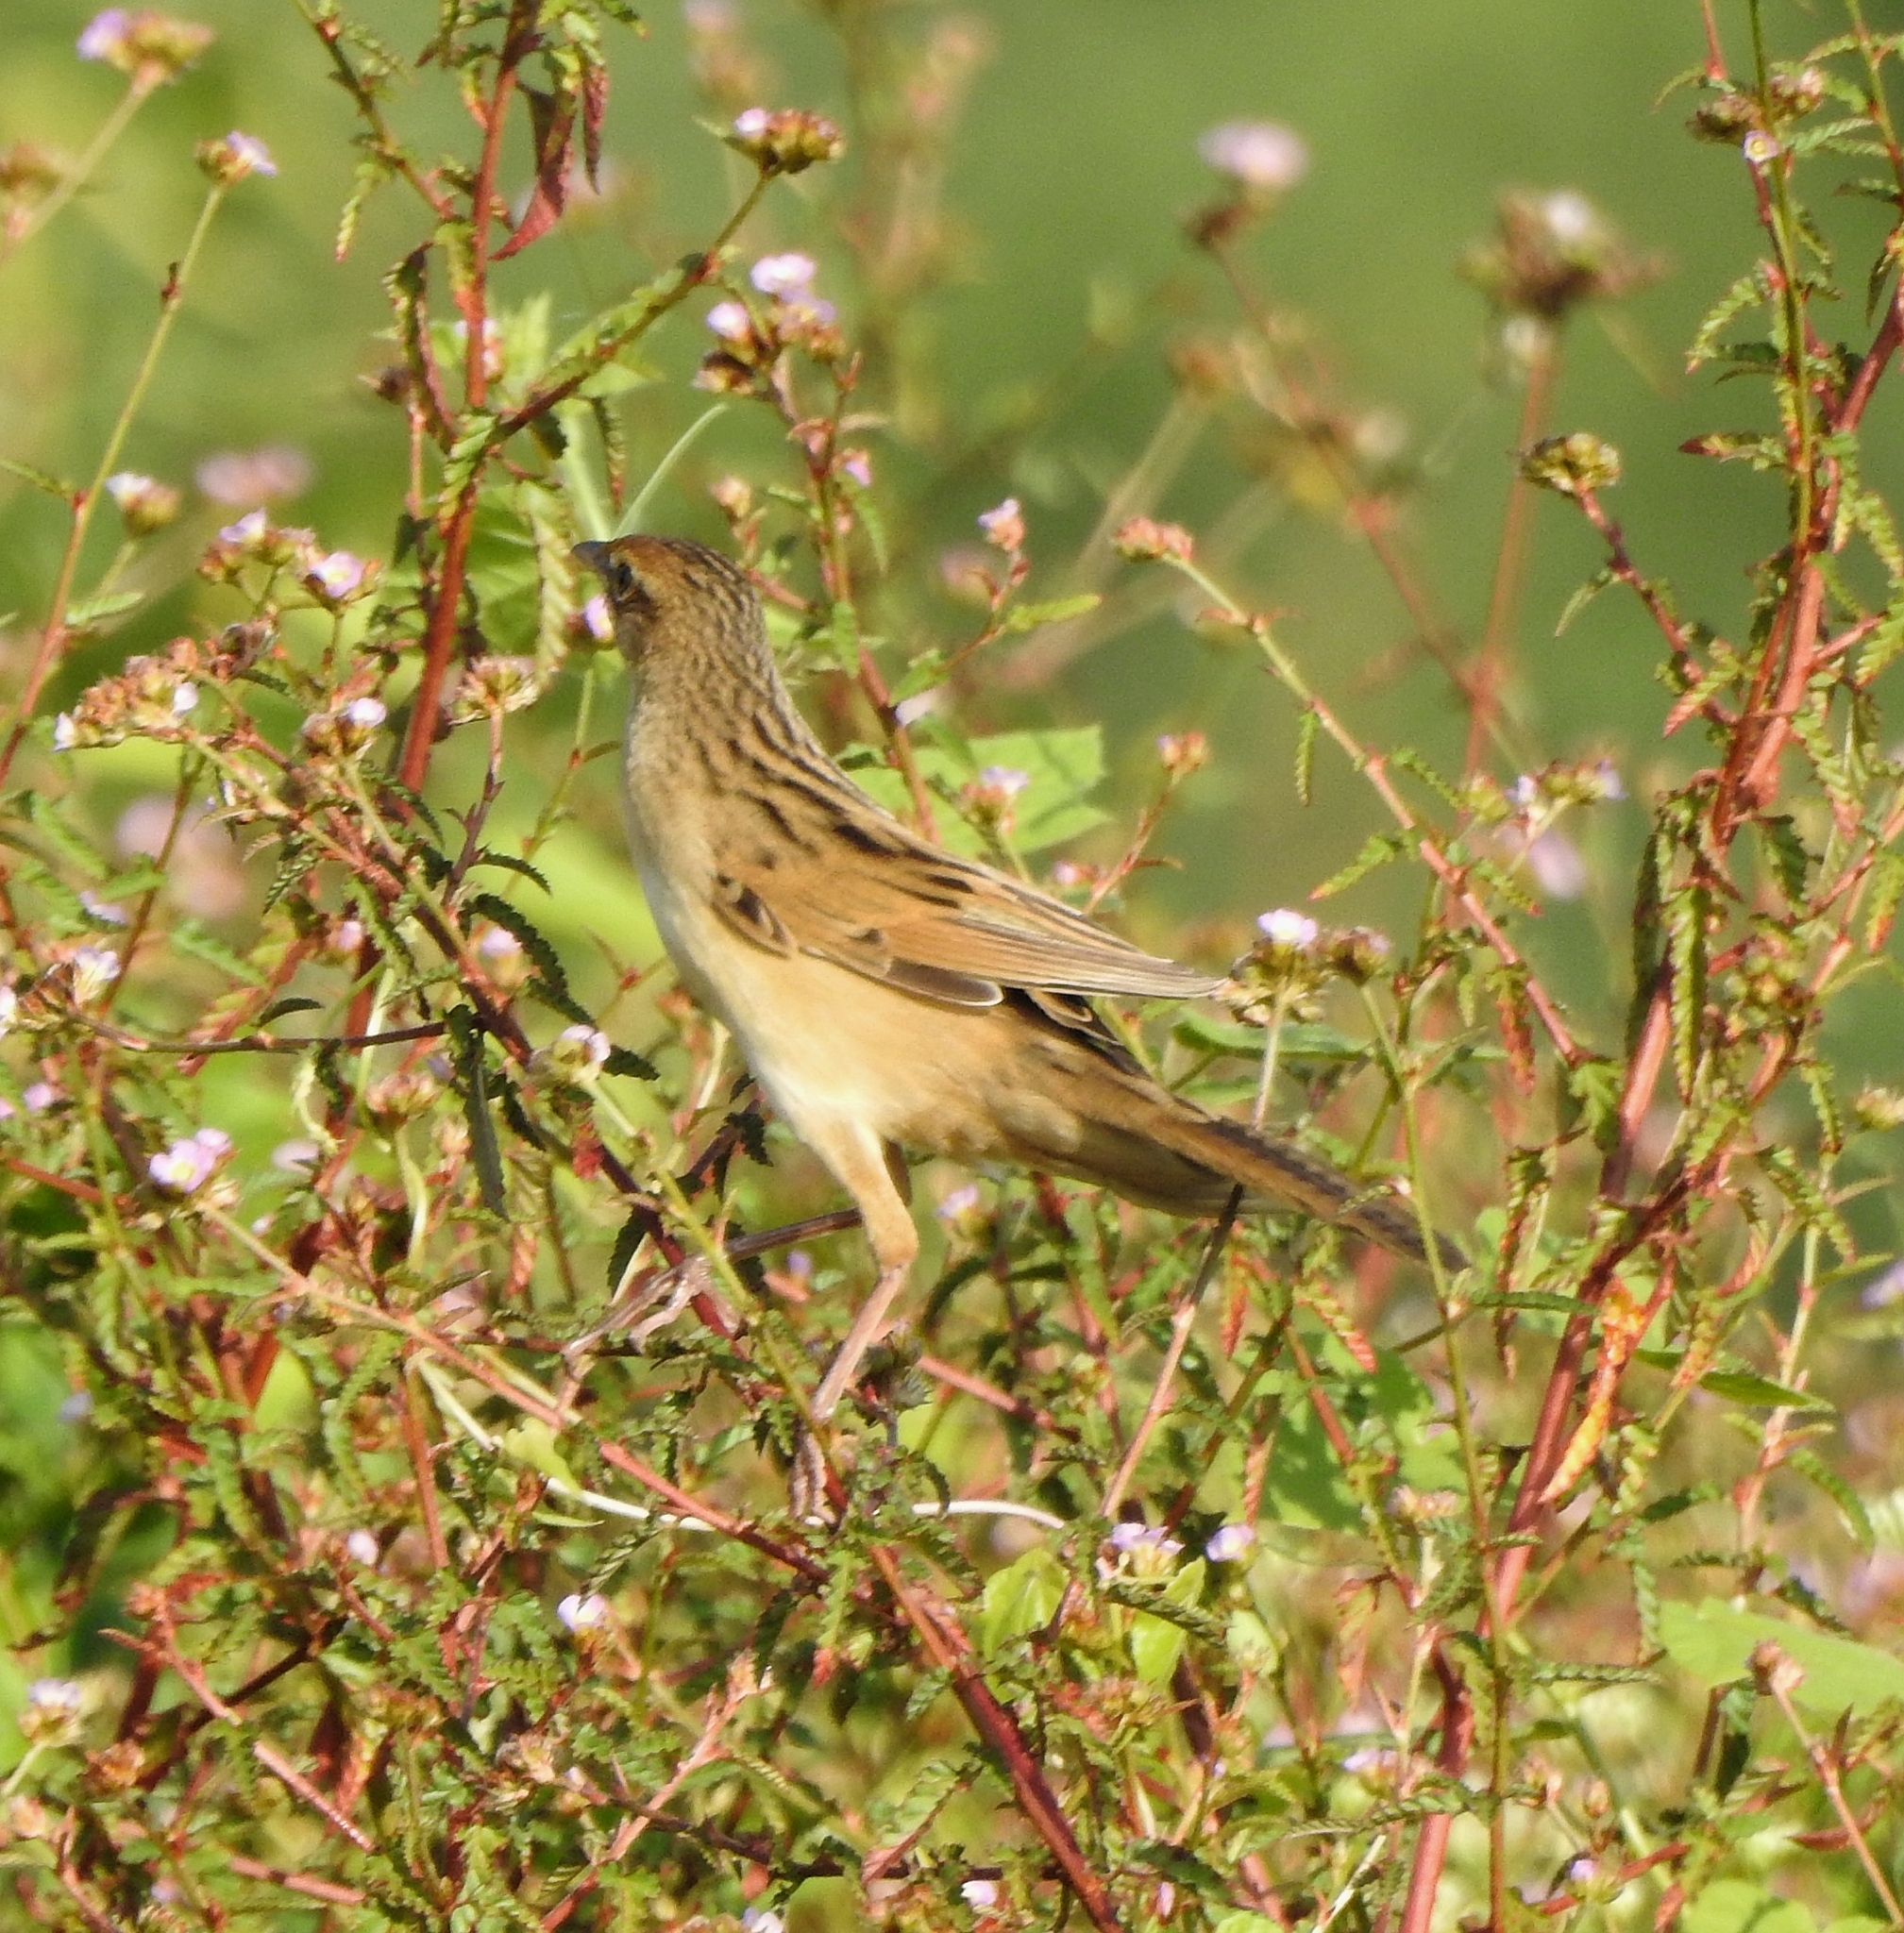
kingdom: Animalia
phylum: Chordata
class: Aves
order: Passeriformes
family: Locustellidae
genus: Chaetornis
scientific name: Chaetornis striata
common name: Bristled grassbird
